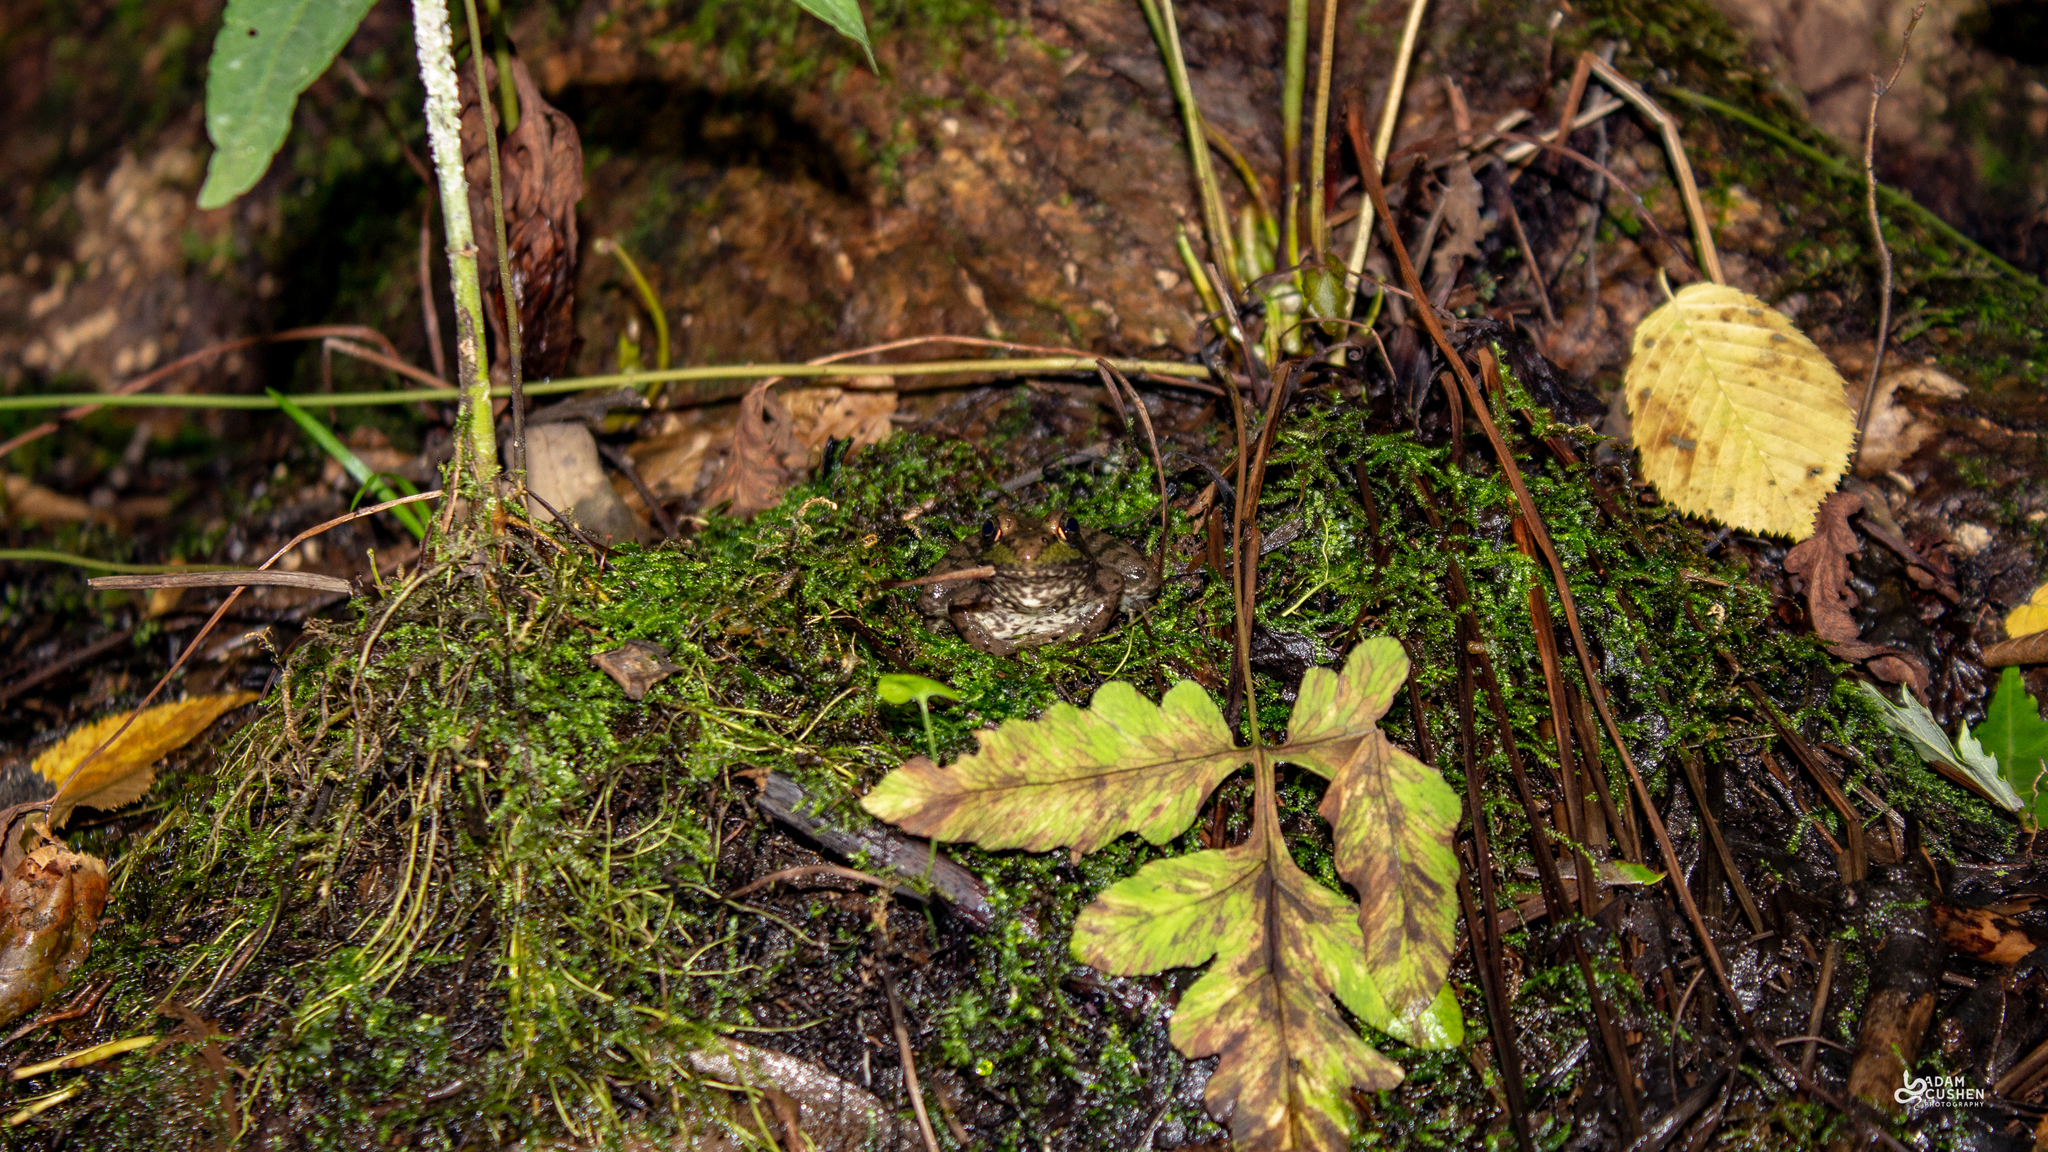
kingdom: Animalia
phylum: Chordata
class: Amphibia
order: Anura
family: Ranidae
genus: Lithobates
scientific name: Lithobates clamitans
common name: Green frog
